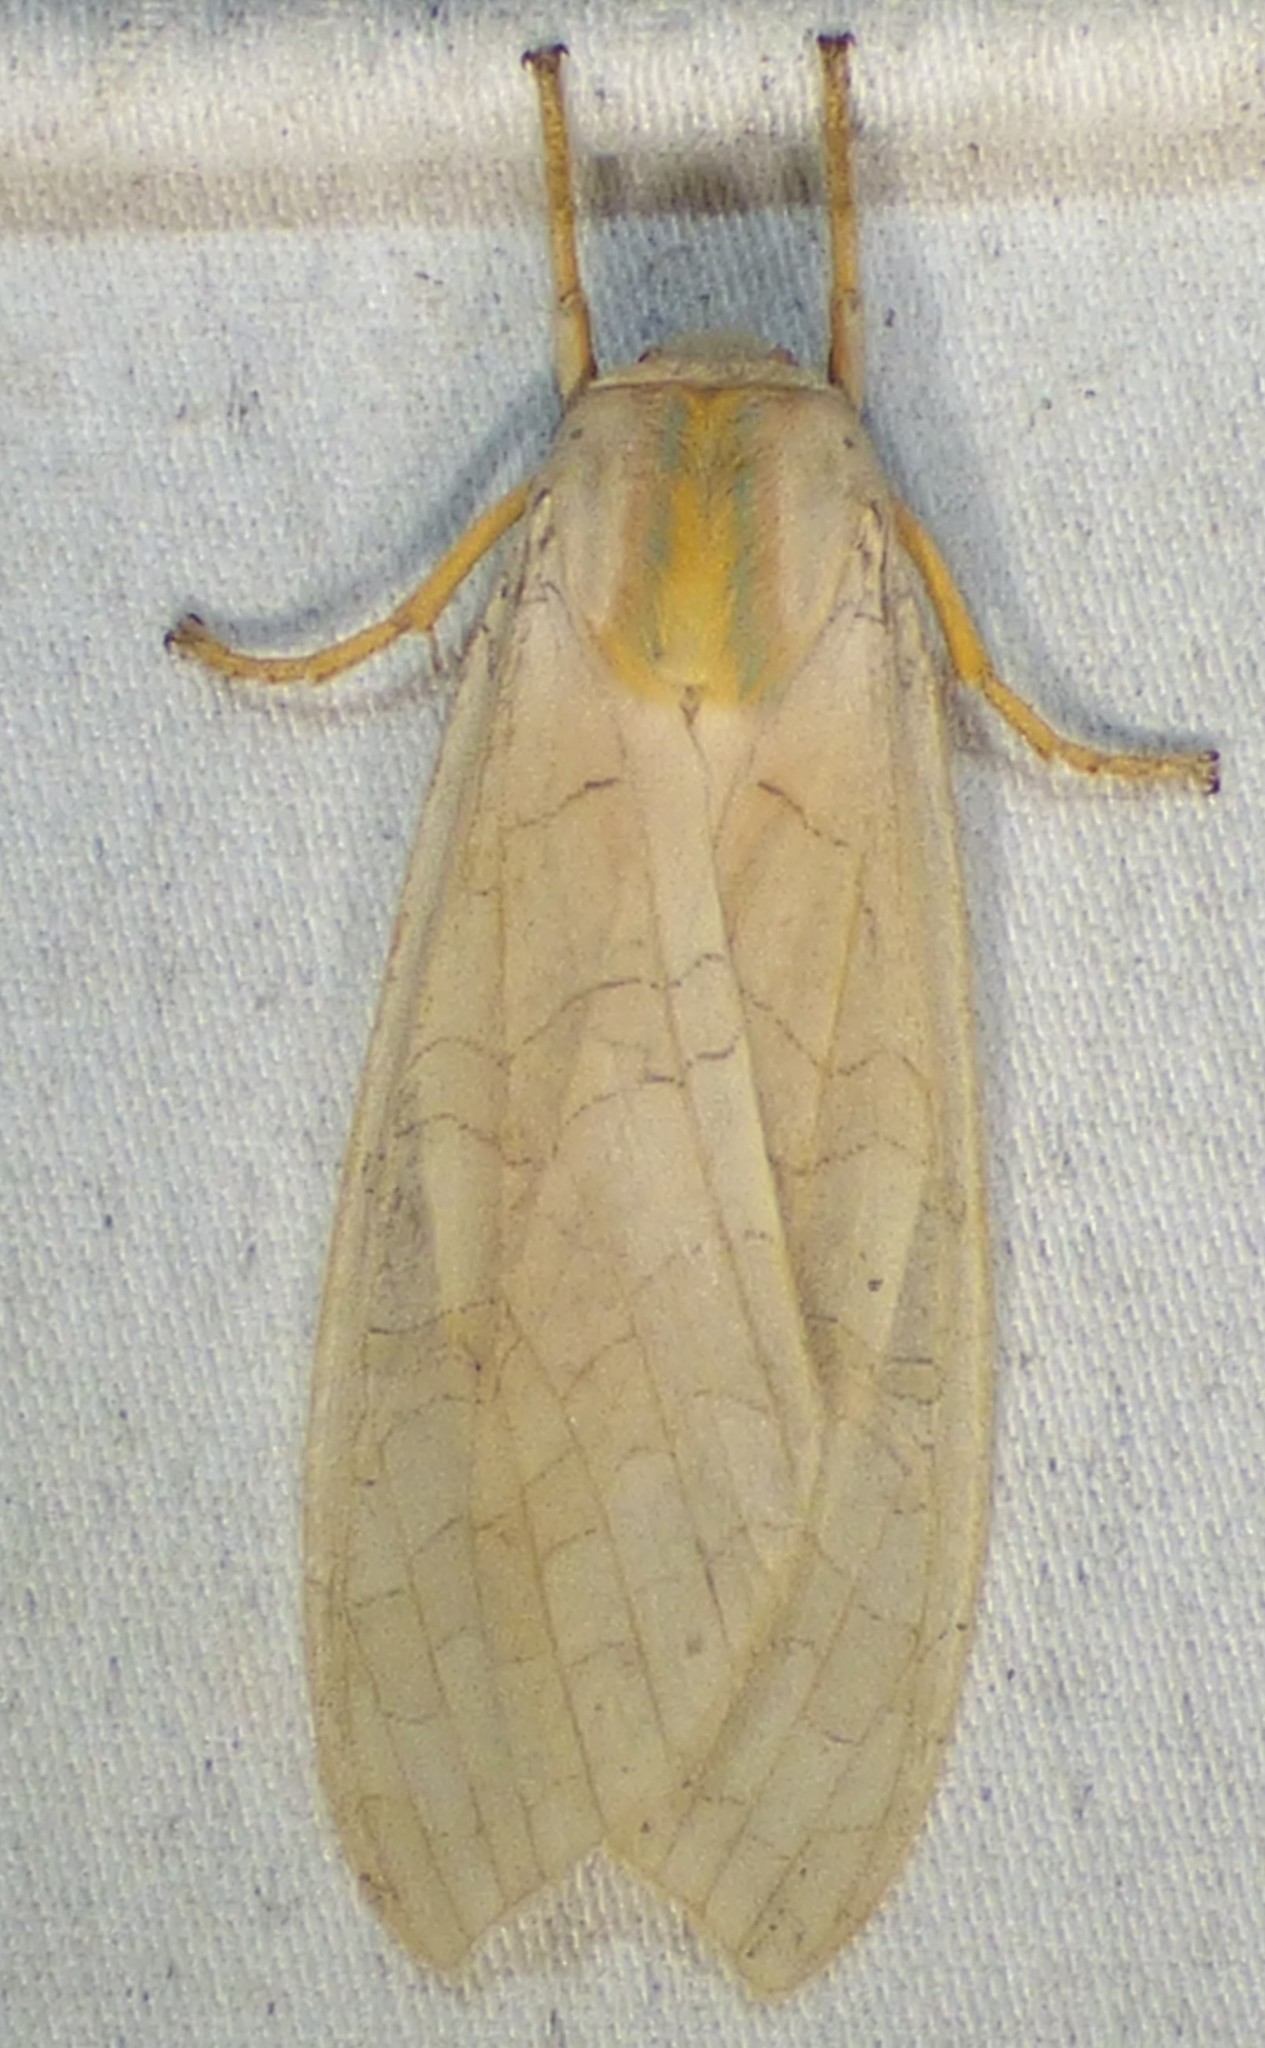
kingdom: Animalia
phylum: Arthropoda
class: Insecta
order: Lepidoptera
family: Erebidae
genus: Halysidota
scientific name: Halysidota
